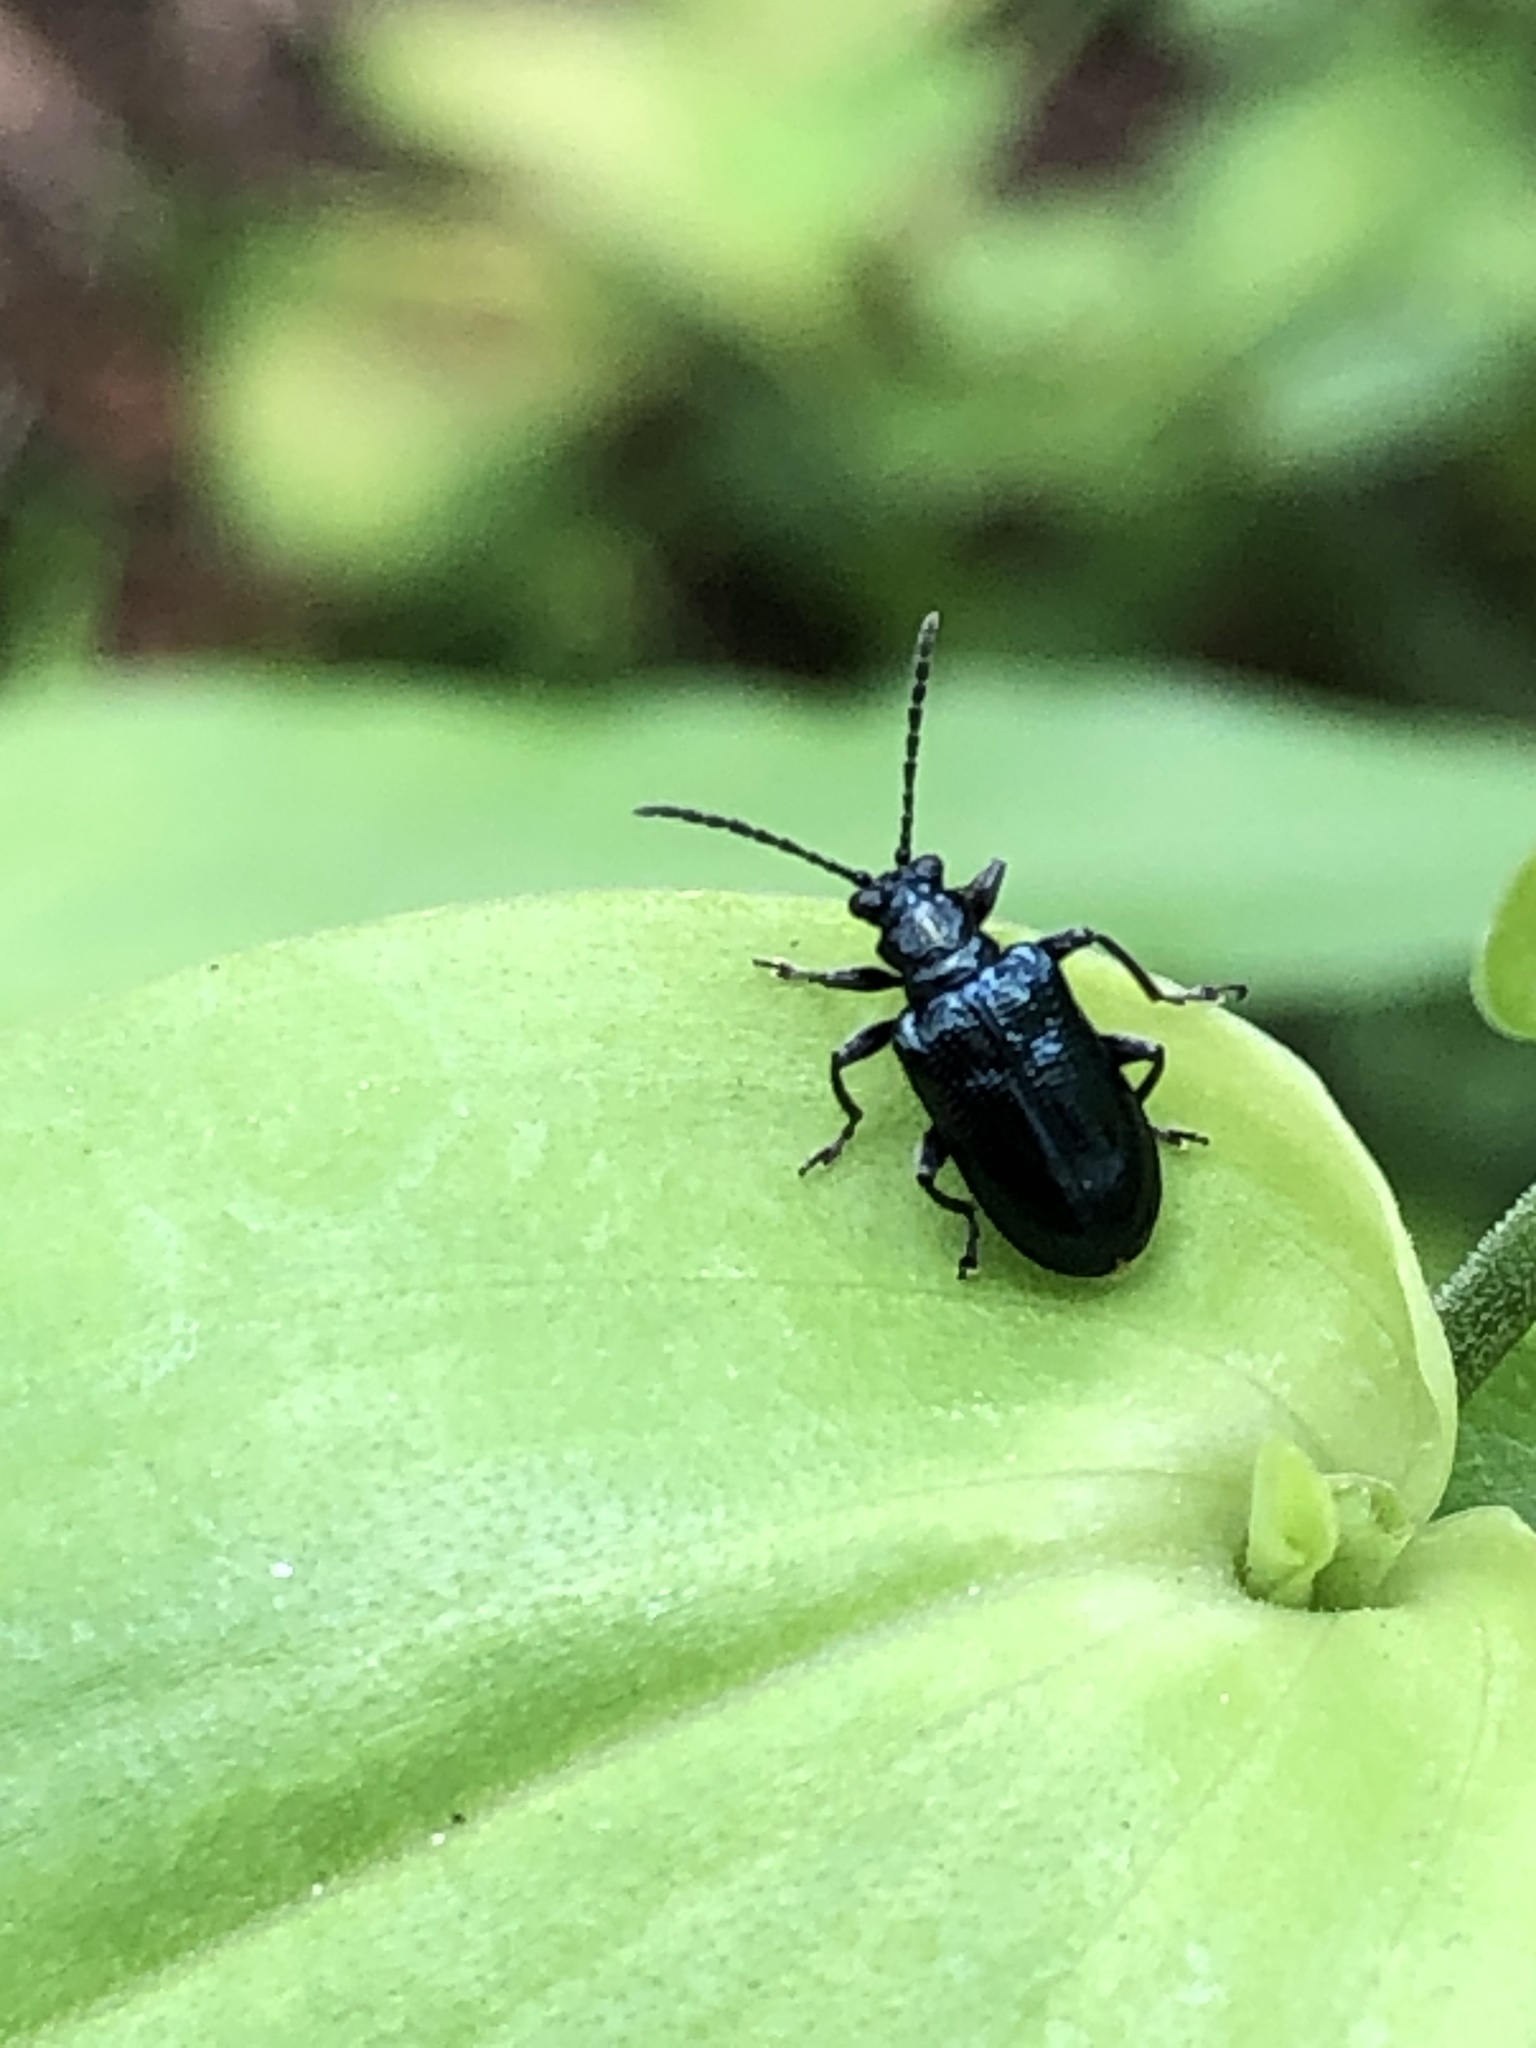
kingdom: Animalia
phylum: Arthropoda
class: Insecta
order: Coleoptera
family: Chrysomelidae
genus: Lema
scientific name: Lema concinnipennis
